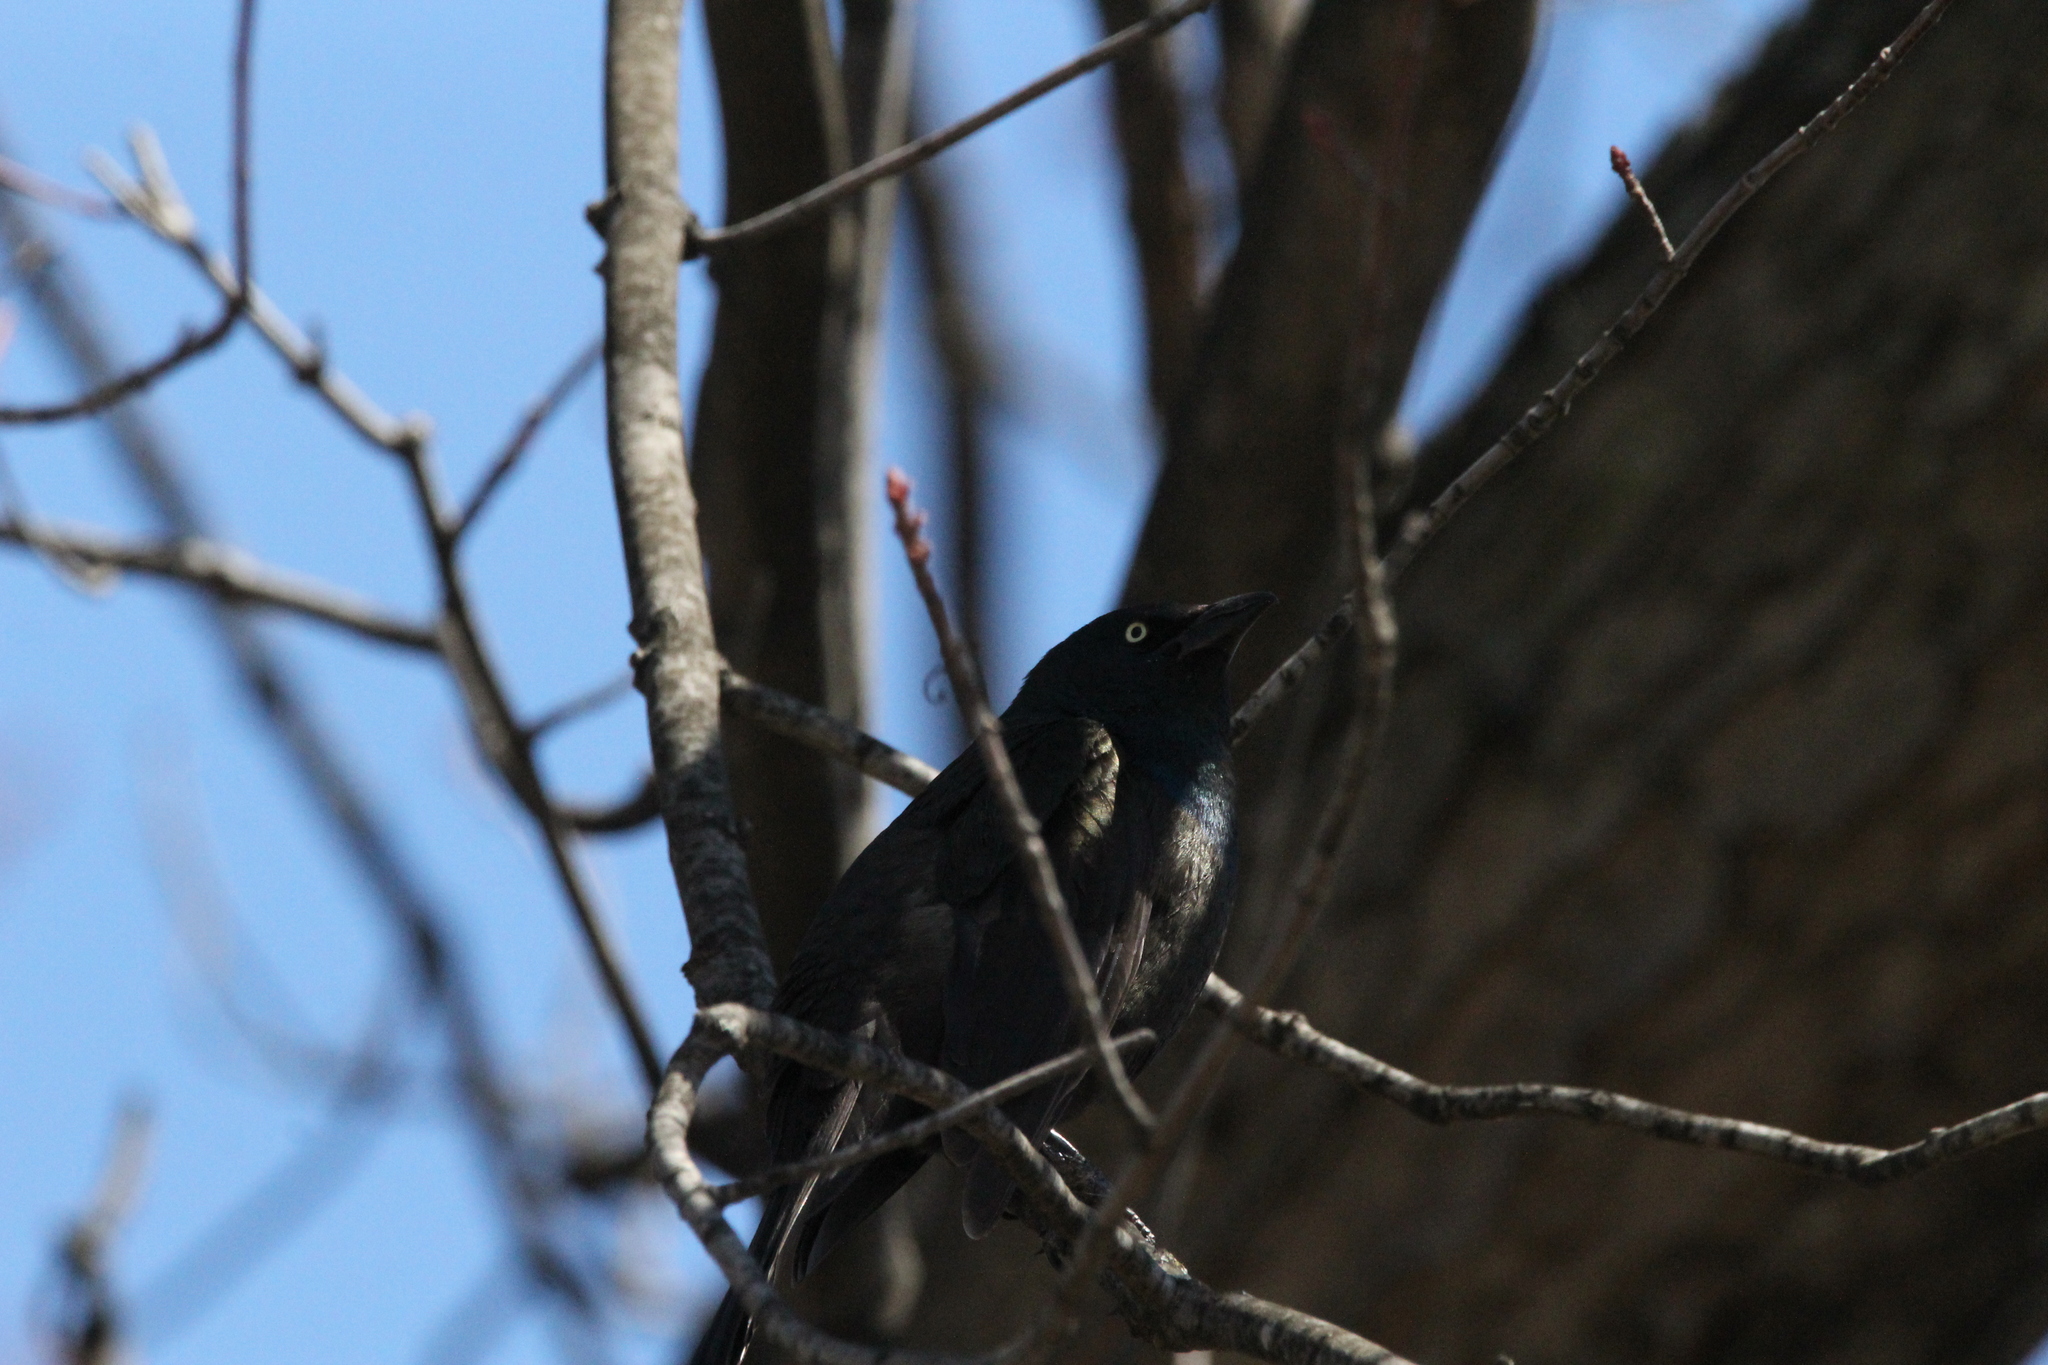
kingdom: Animalia
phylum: Chordata
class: Aves
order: Passeriformes
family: Icteridae
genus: Quiscalus
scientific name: Quiscalus quiscula
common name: Common grackle
